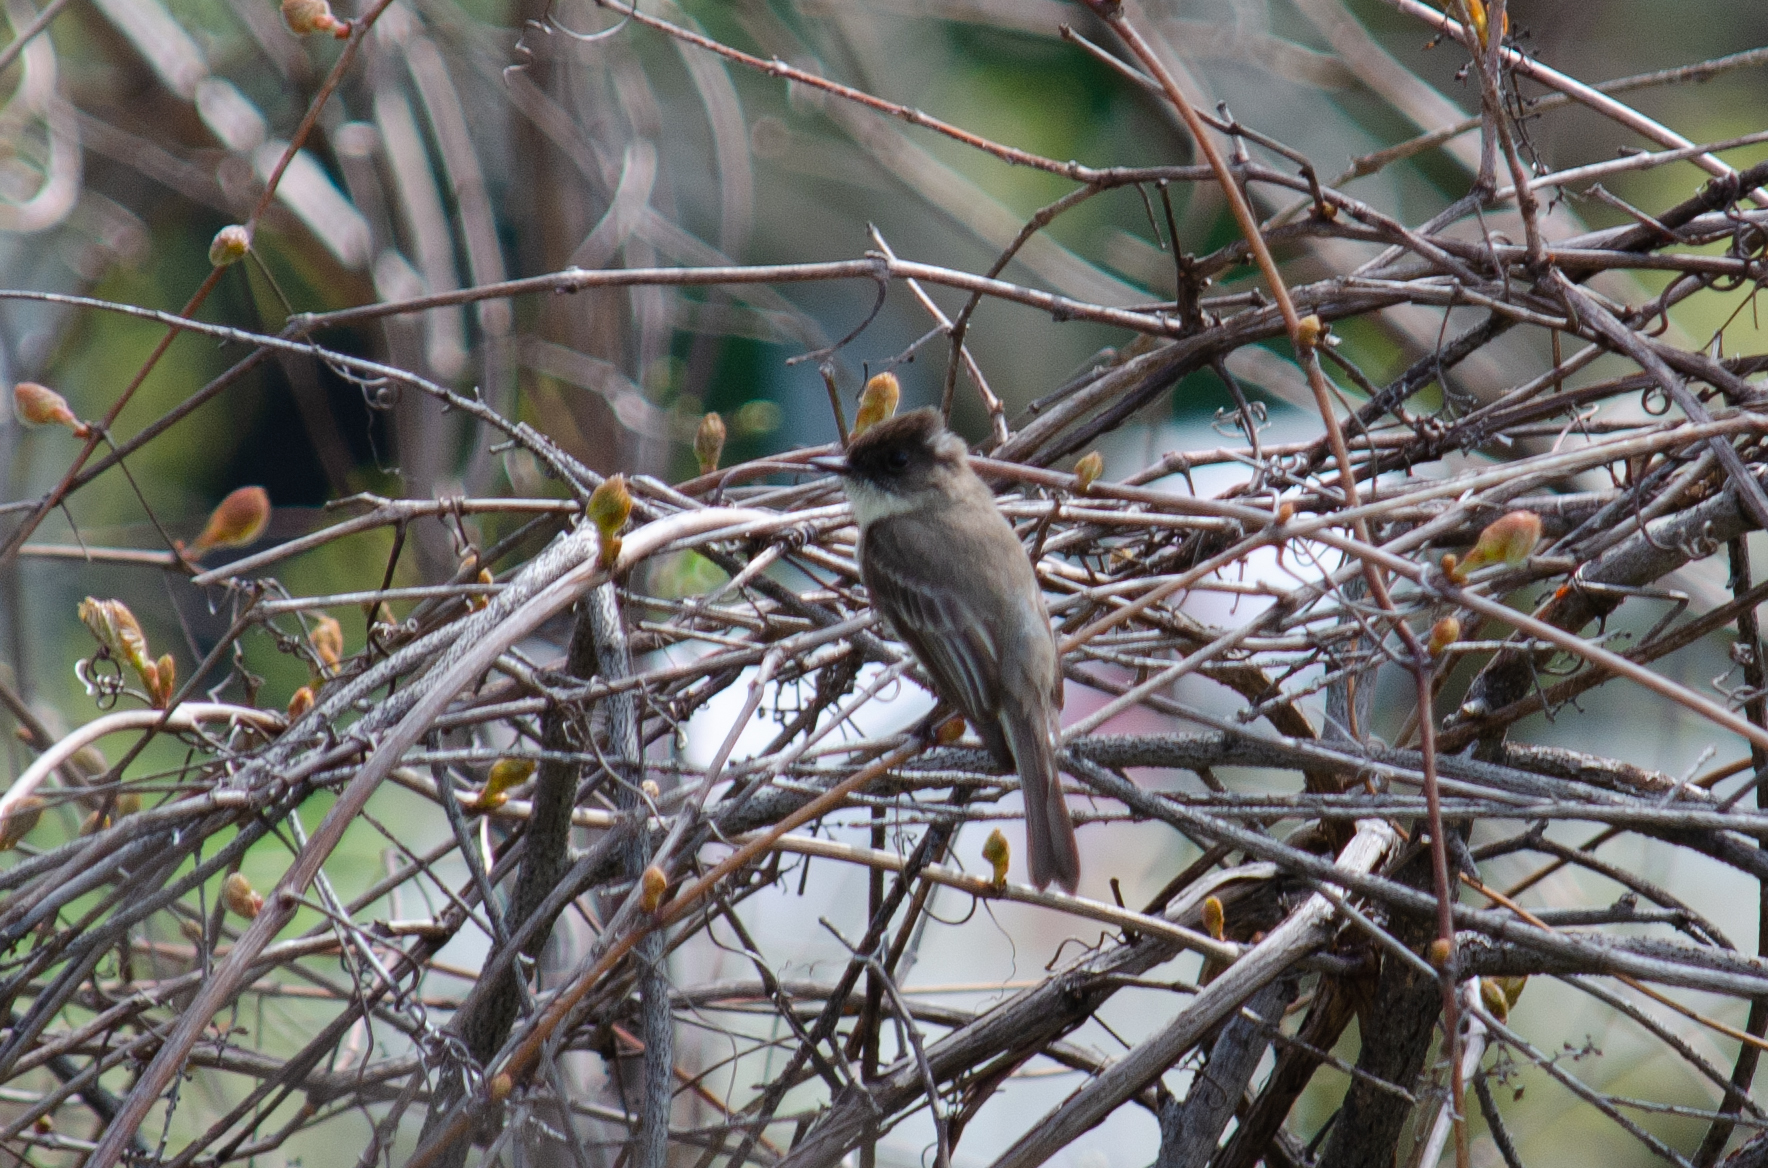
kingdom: Animalia
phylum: Chordata
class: Aves
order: Passeriformes
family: Tyrannidae
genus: Sayornis
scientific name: Sayornis phoebe
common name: Eastern phoebe
